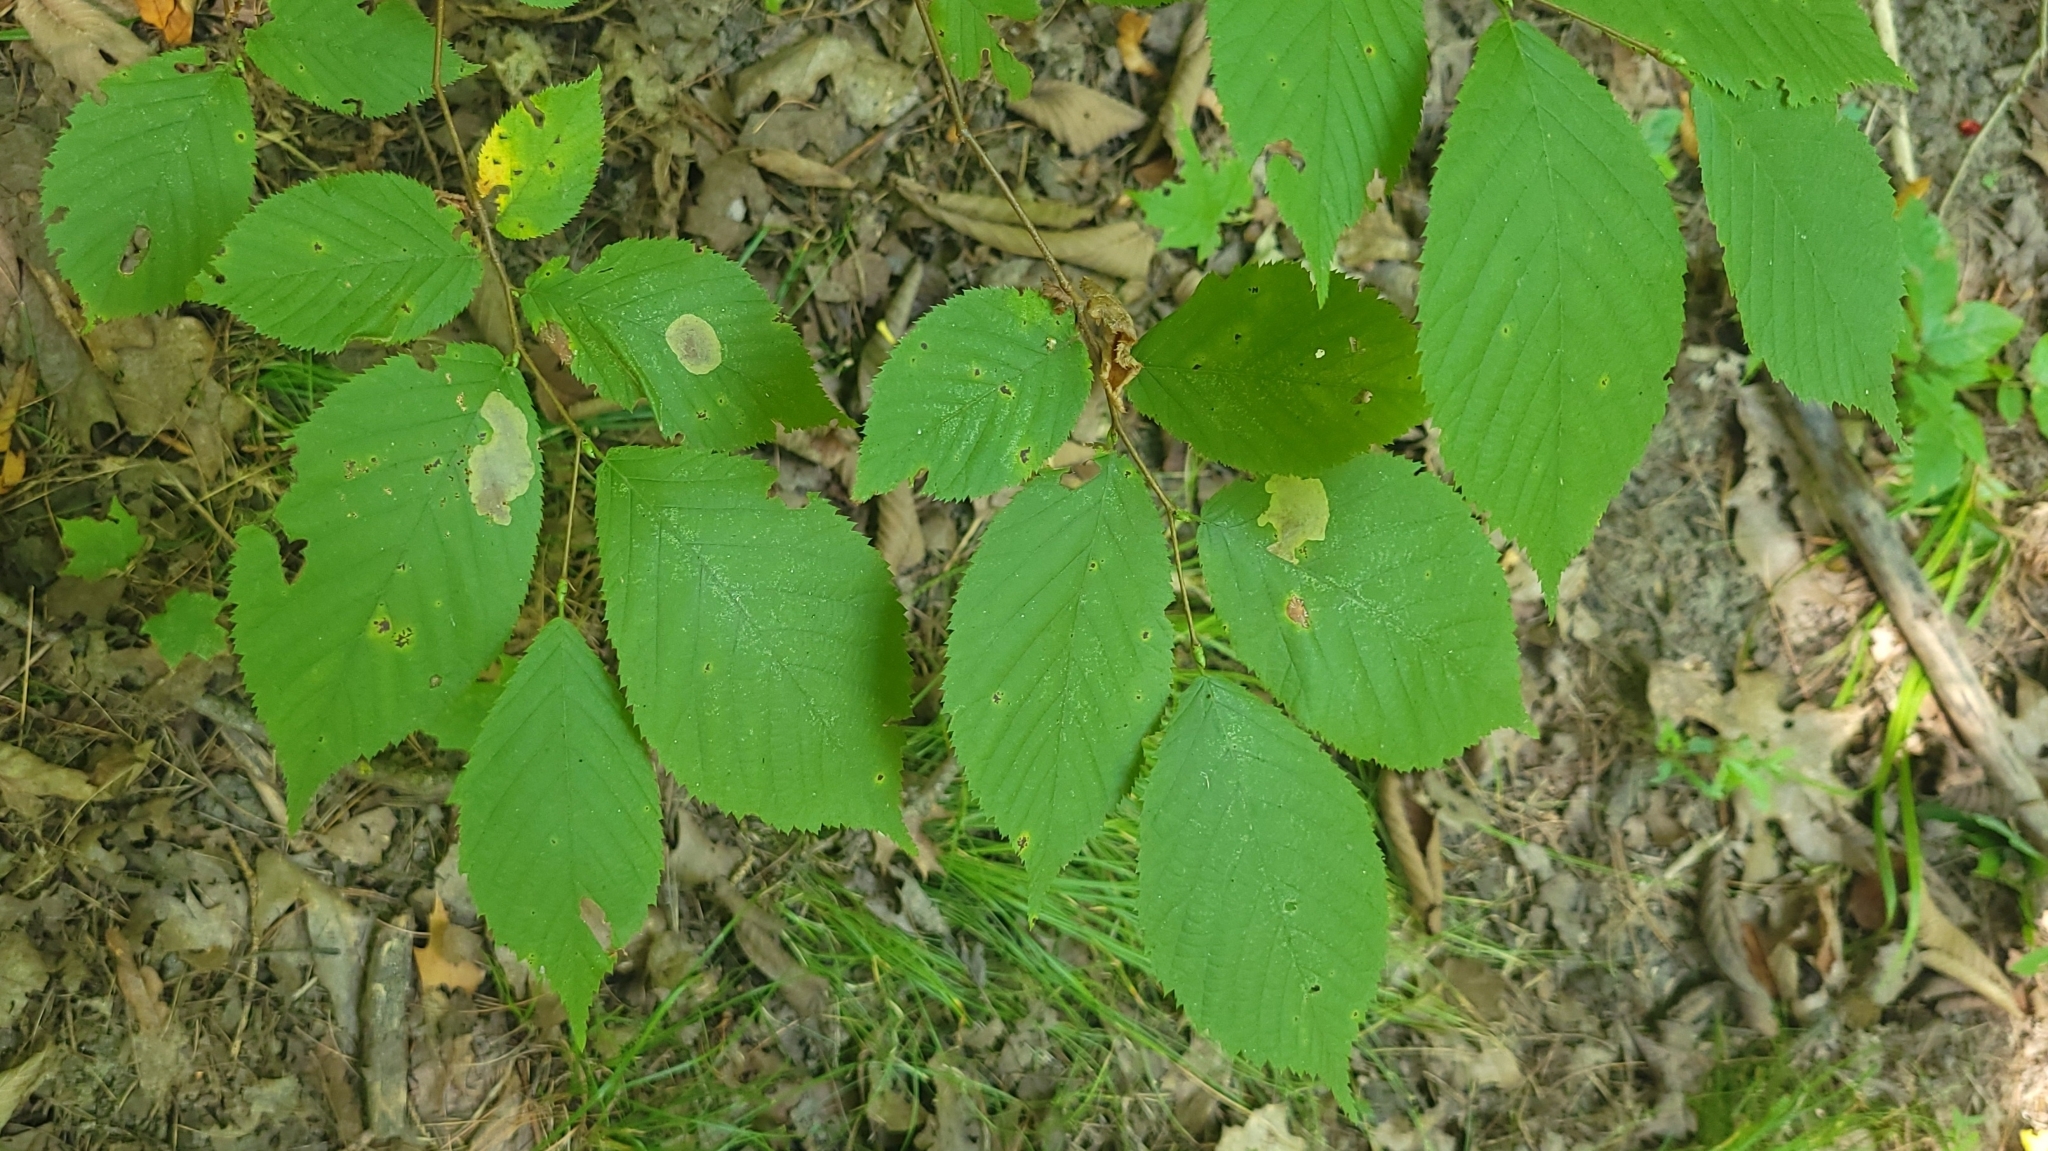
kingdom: Plantae
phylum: Tracheophyta
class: Magnoliopsida
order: Fagales
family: Betulaceae
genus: Ostrya
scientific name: Ostrya virginiana
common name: Ironwood
